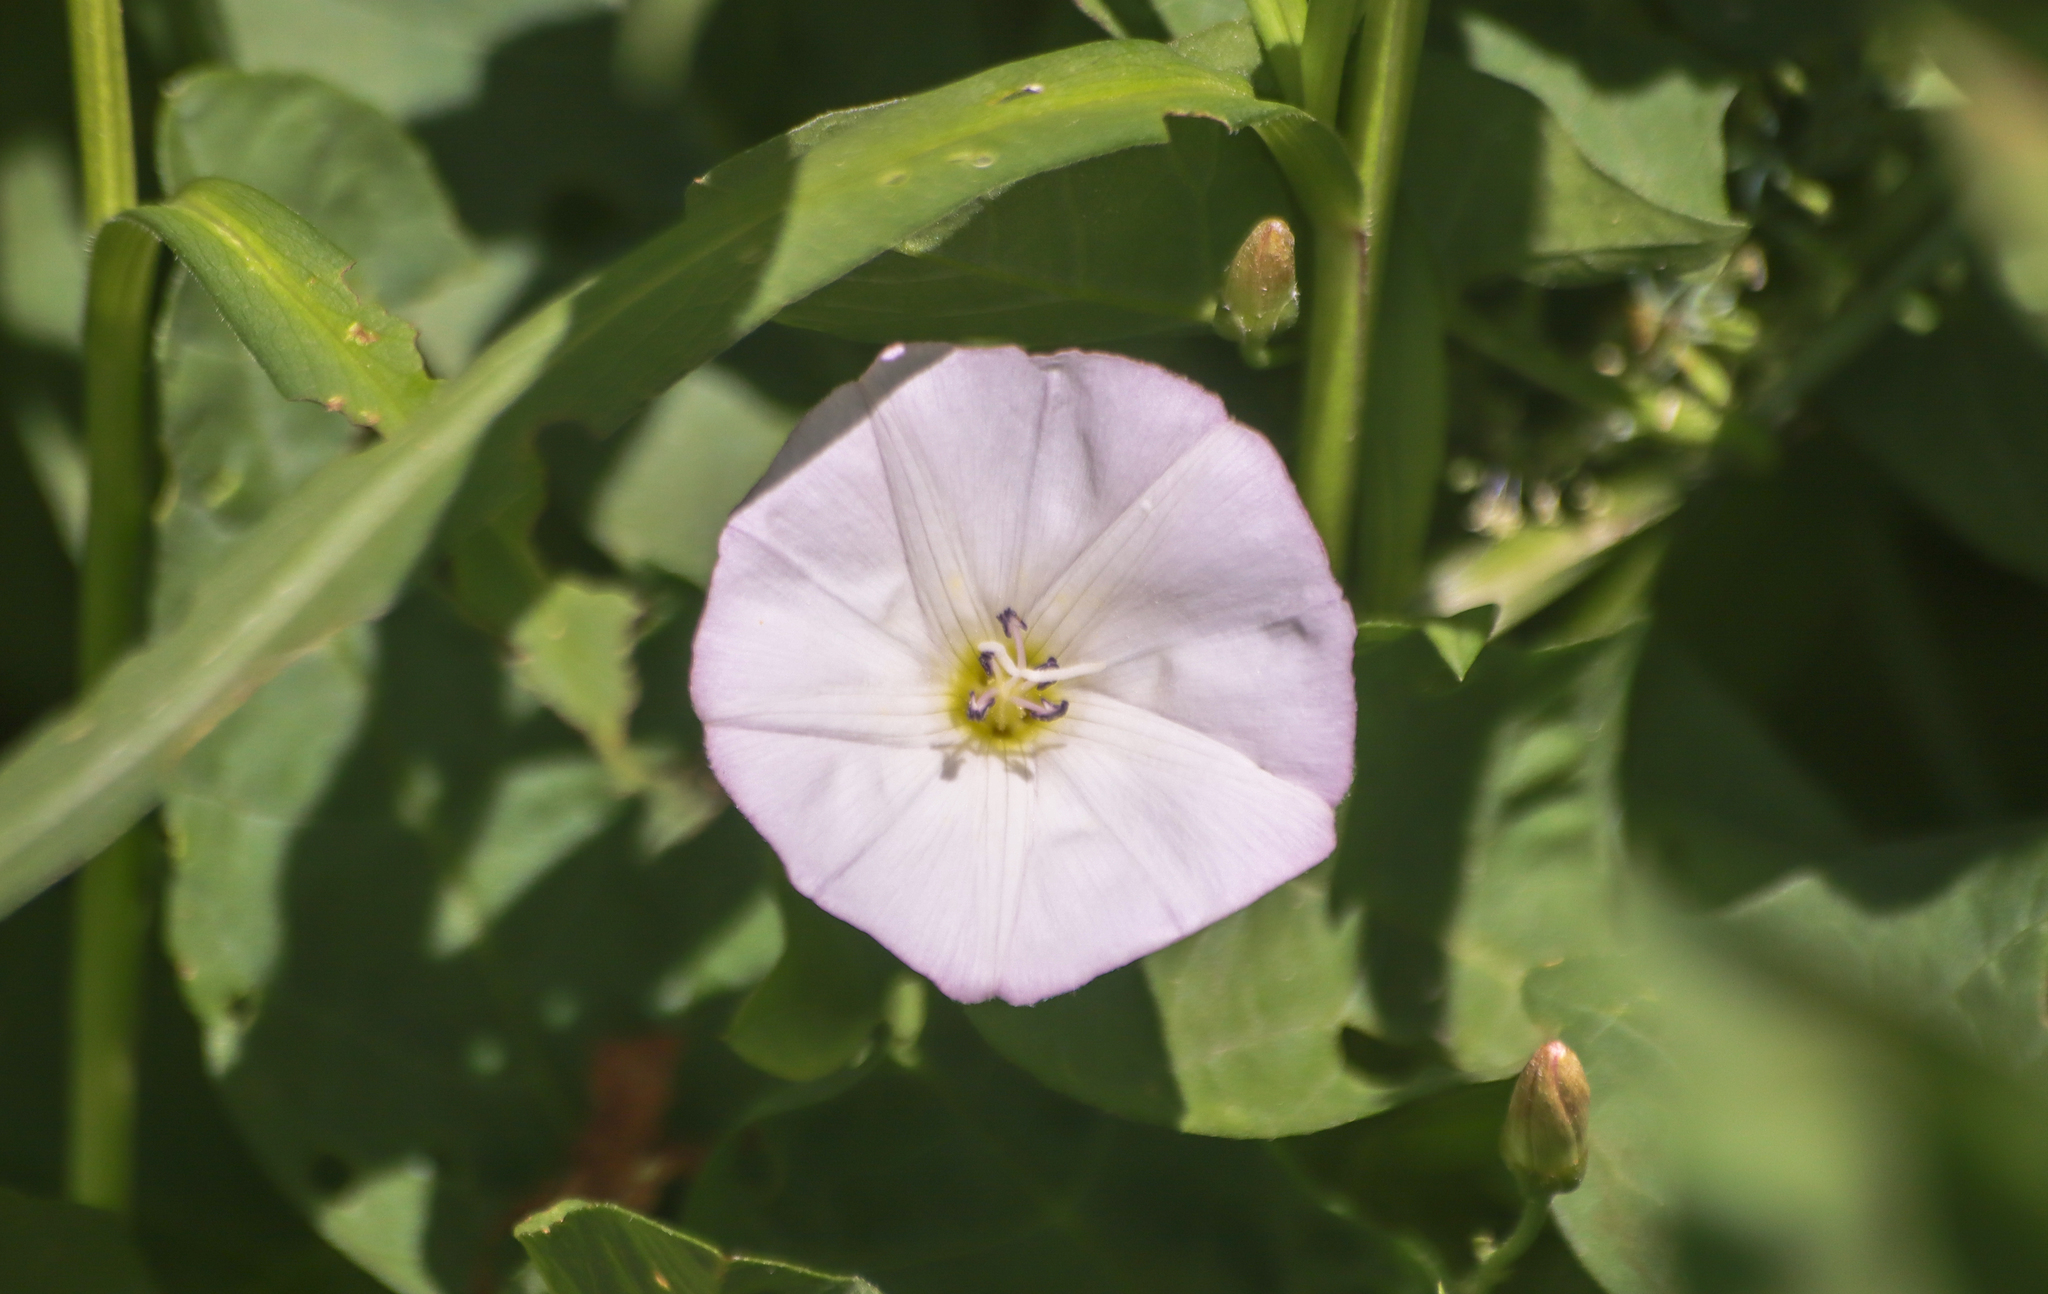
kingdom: Plantae
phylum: Tracheophyta
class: Magnoliopsida
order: Solanales
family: Convolvulaceae
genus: Convolvulus
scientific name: Convolvulus arvensis
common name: Field bindweed
